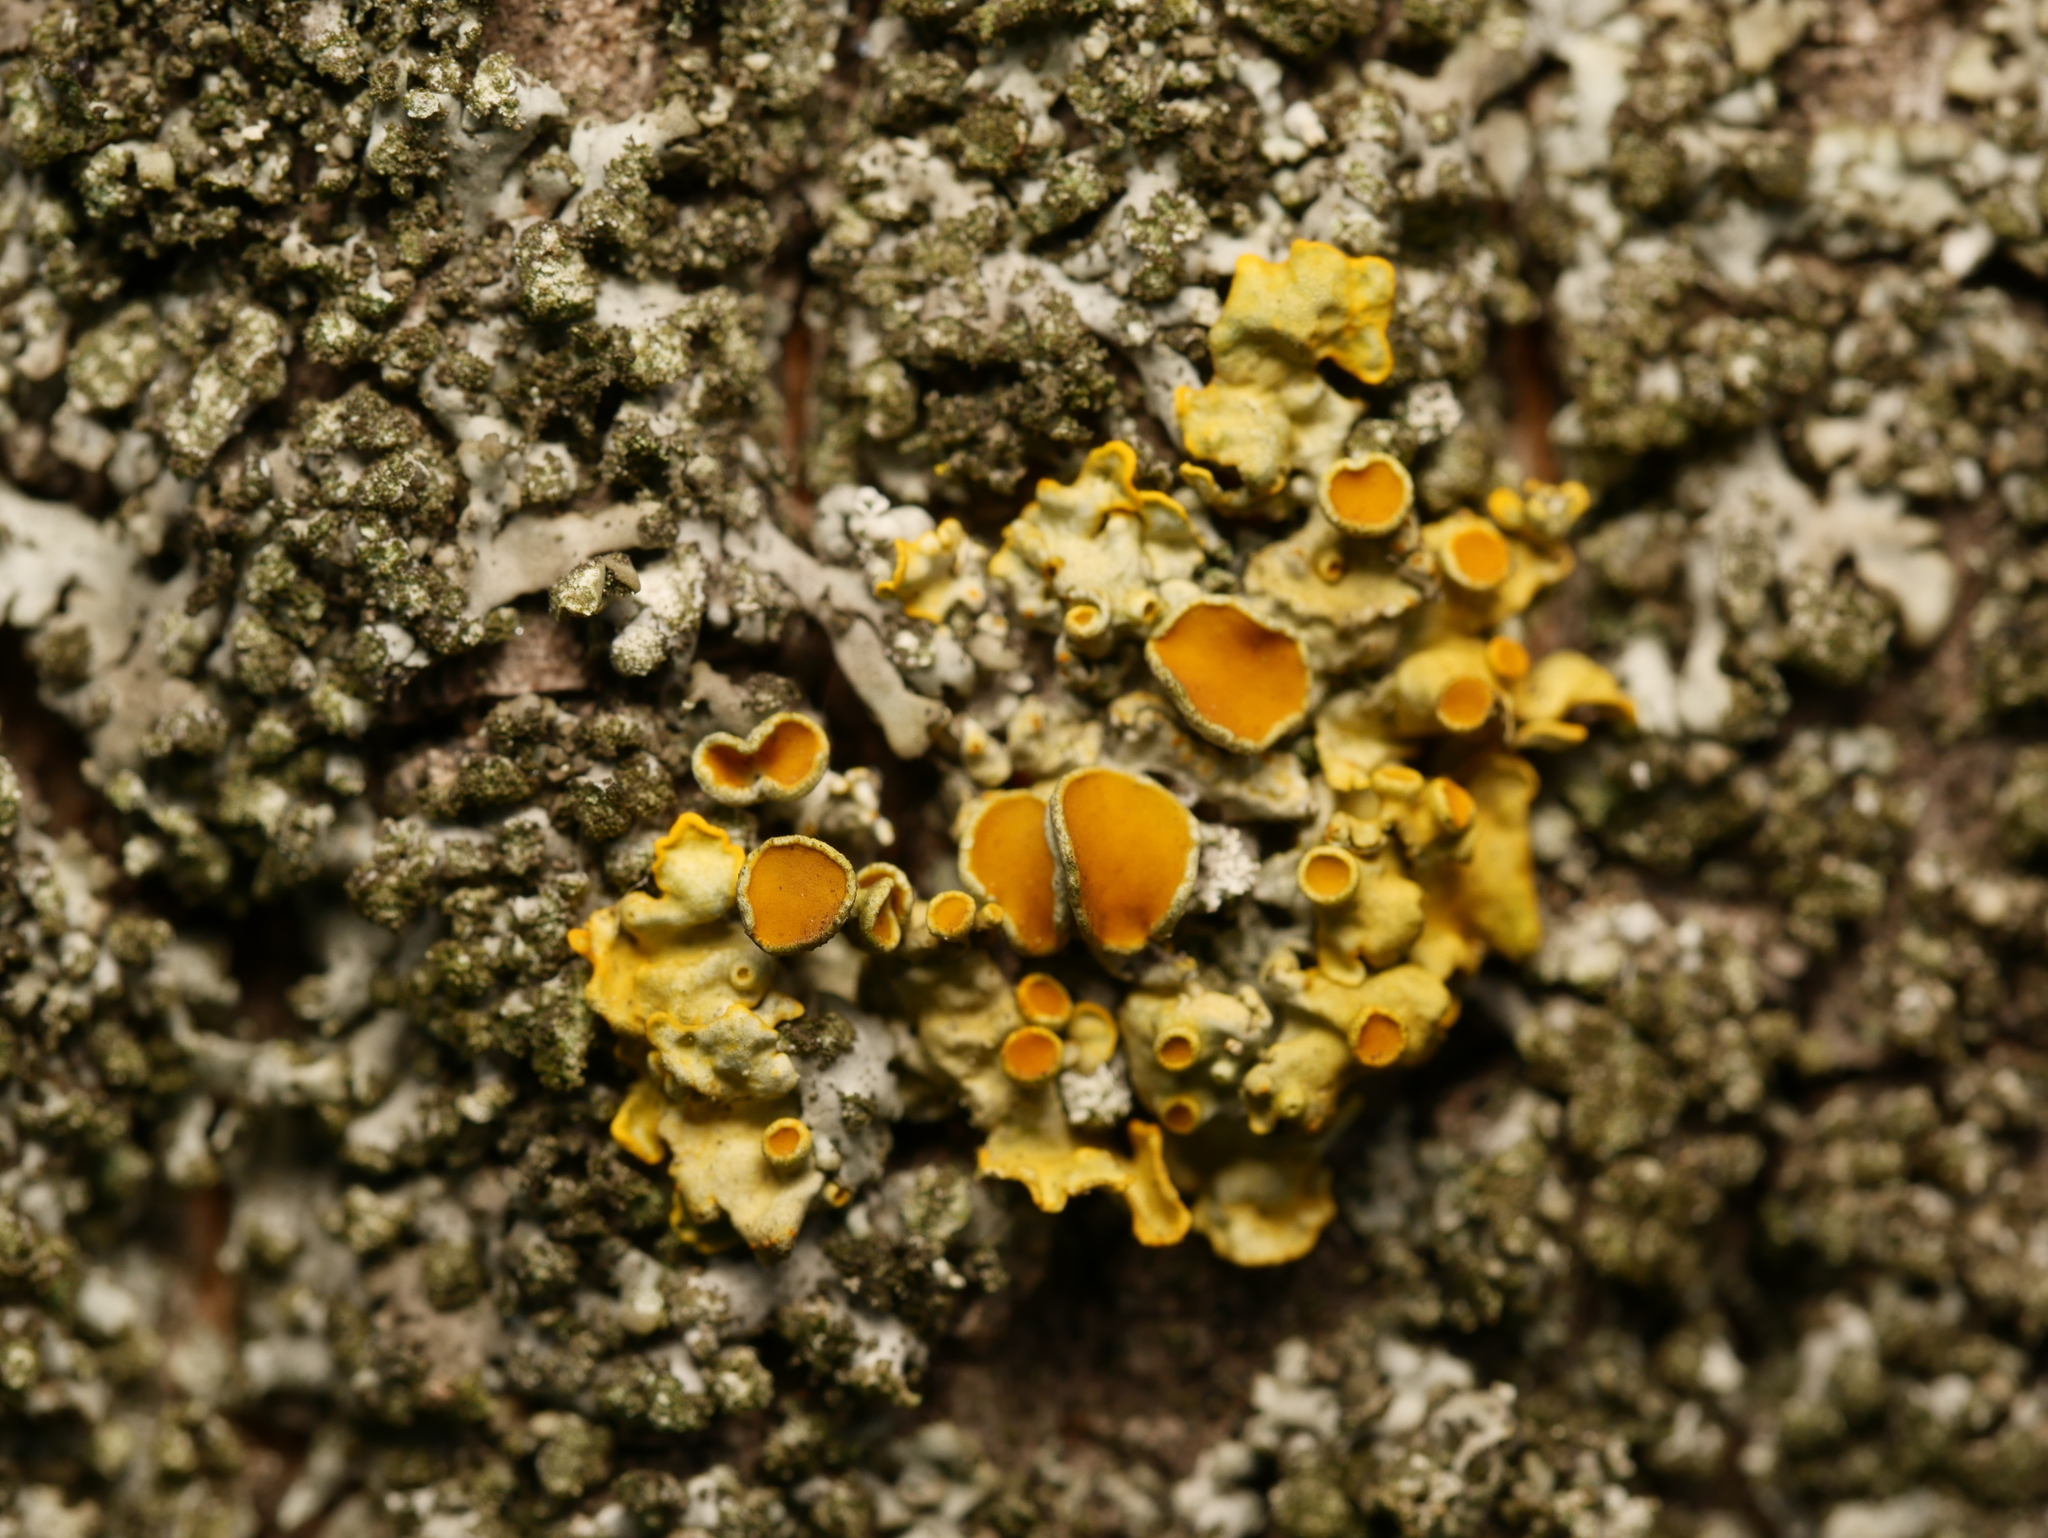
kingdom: Fungi
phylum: Ascomycota
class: Lecanoromycetes
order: Teloschistales
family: Teloschistaceae
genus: Xanthoria
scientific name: Xanthoria parietina
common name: Common orange lichen
